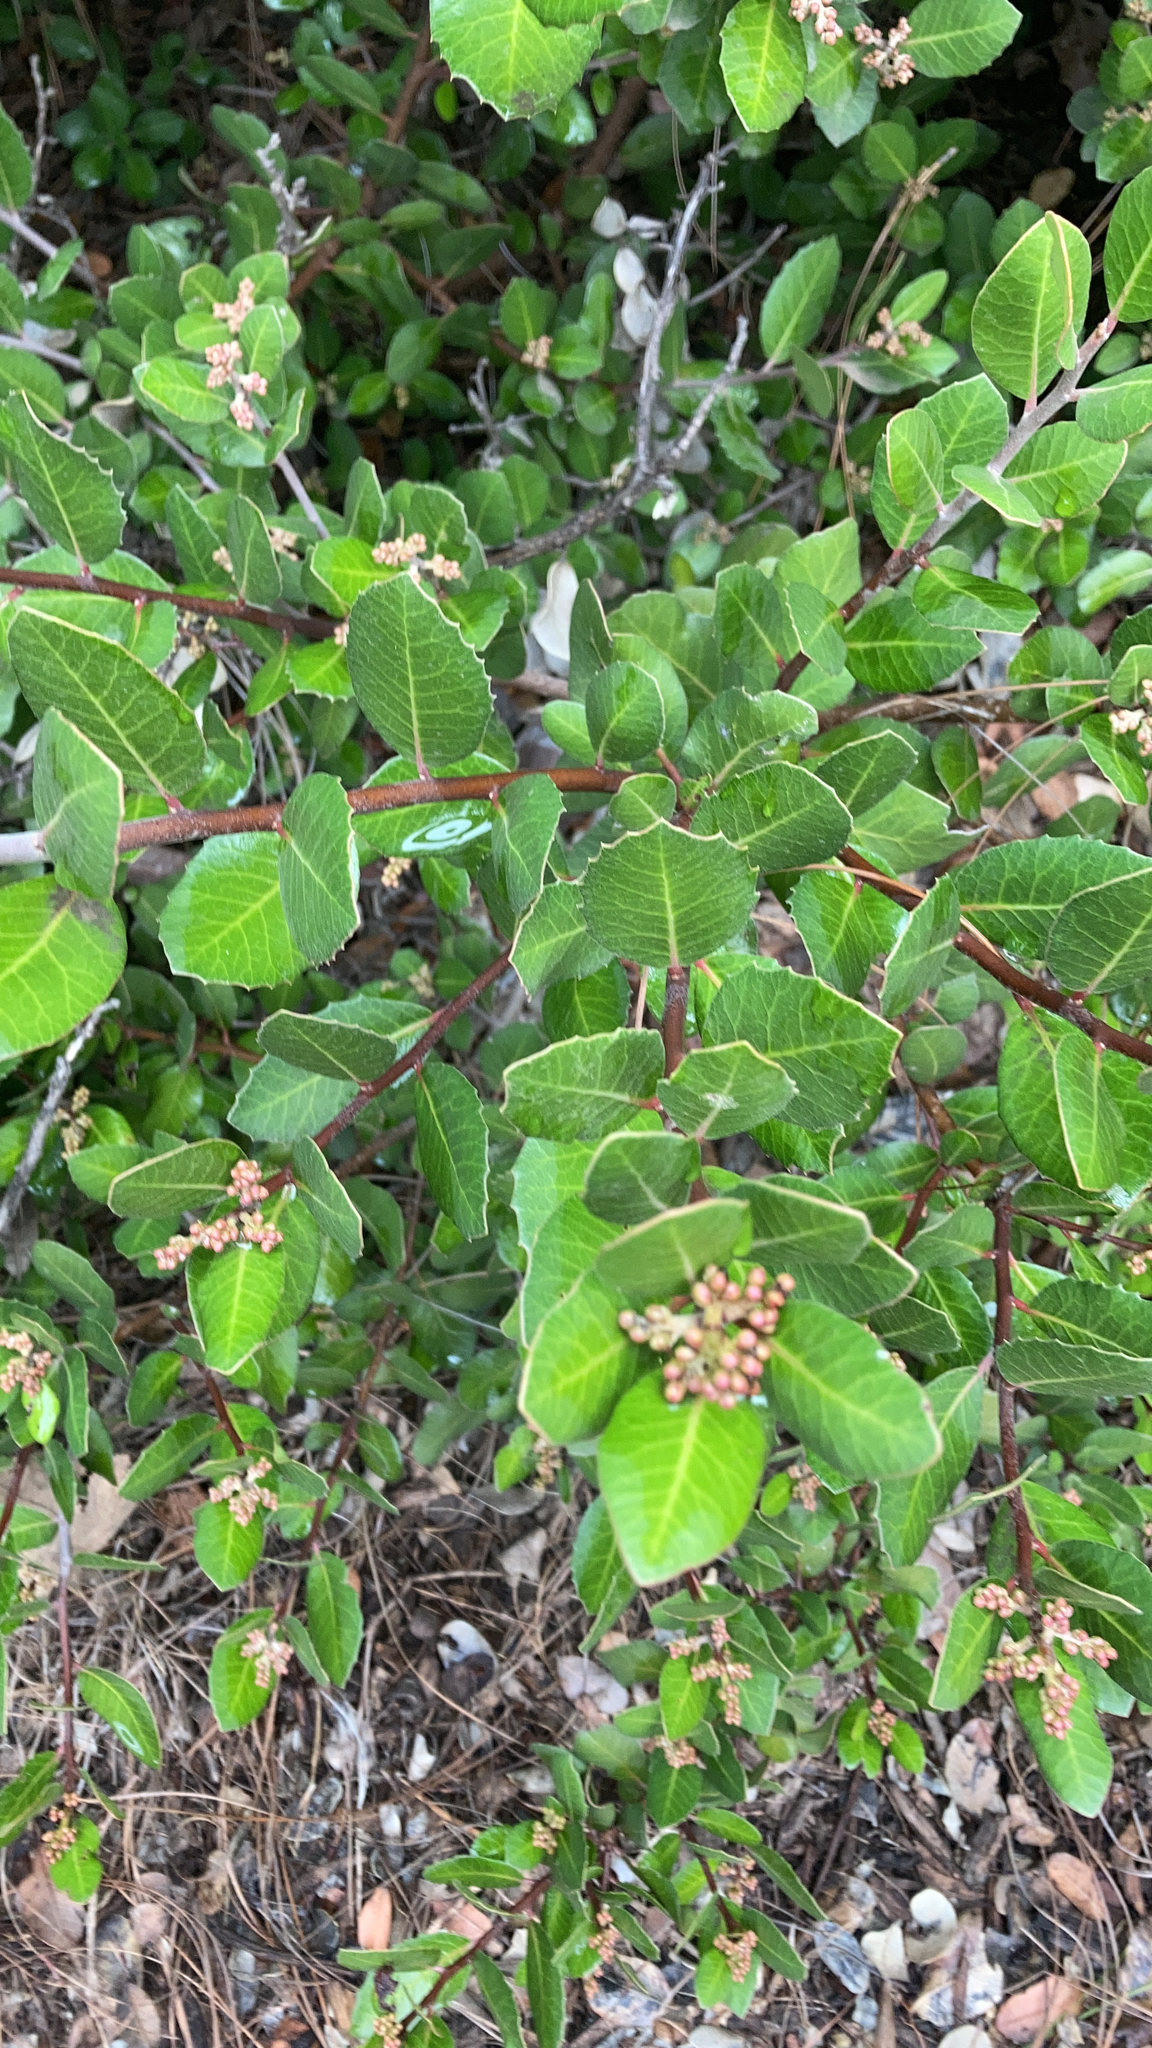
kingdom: Plantae
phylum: Tracheophyta
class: Magnoliopsida
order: Sapindales
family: Anacardiaceae
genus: Rhus
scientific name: Rhus integrifolia
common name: Lemonade sumac
